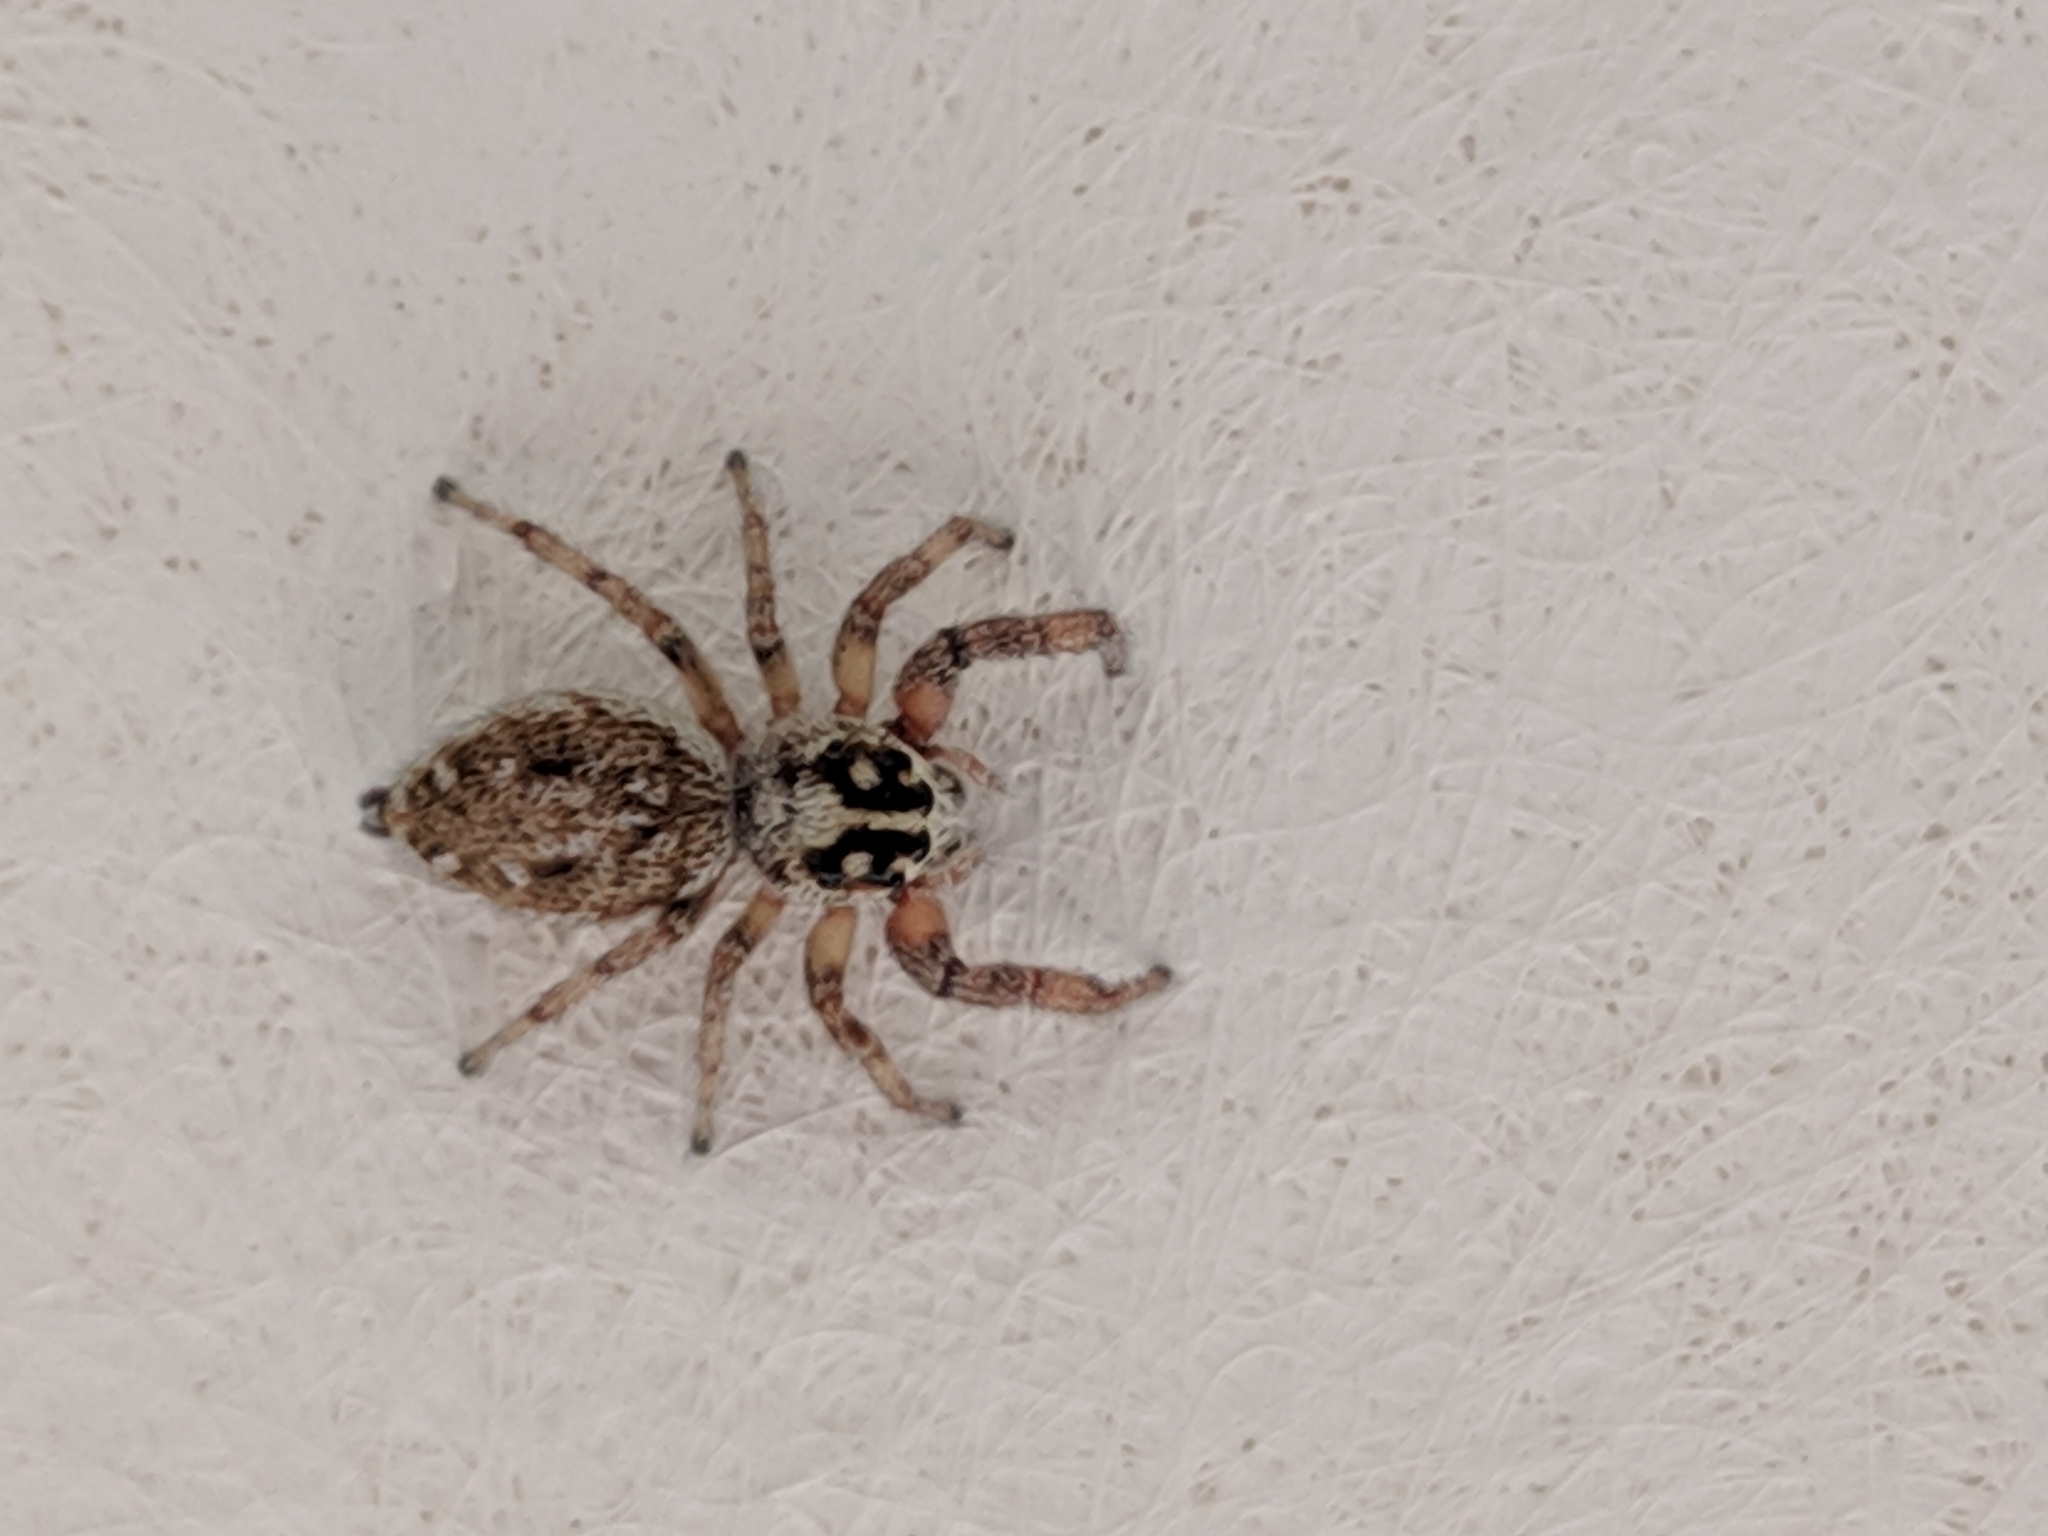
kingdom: Animalia
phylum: Arthropoda
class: Arachnida
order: Araneae
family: Salticidae
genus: Macaroeris
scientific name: Macaroeris nidicolens
